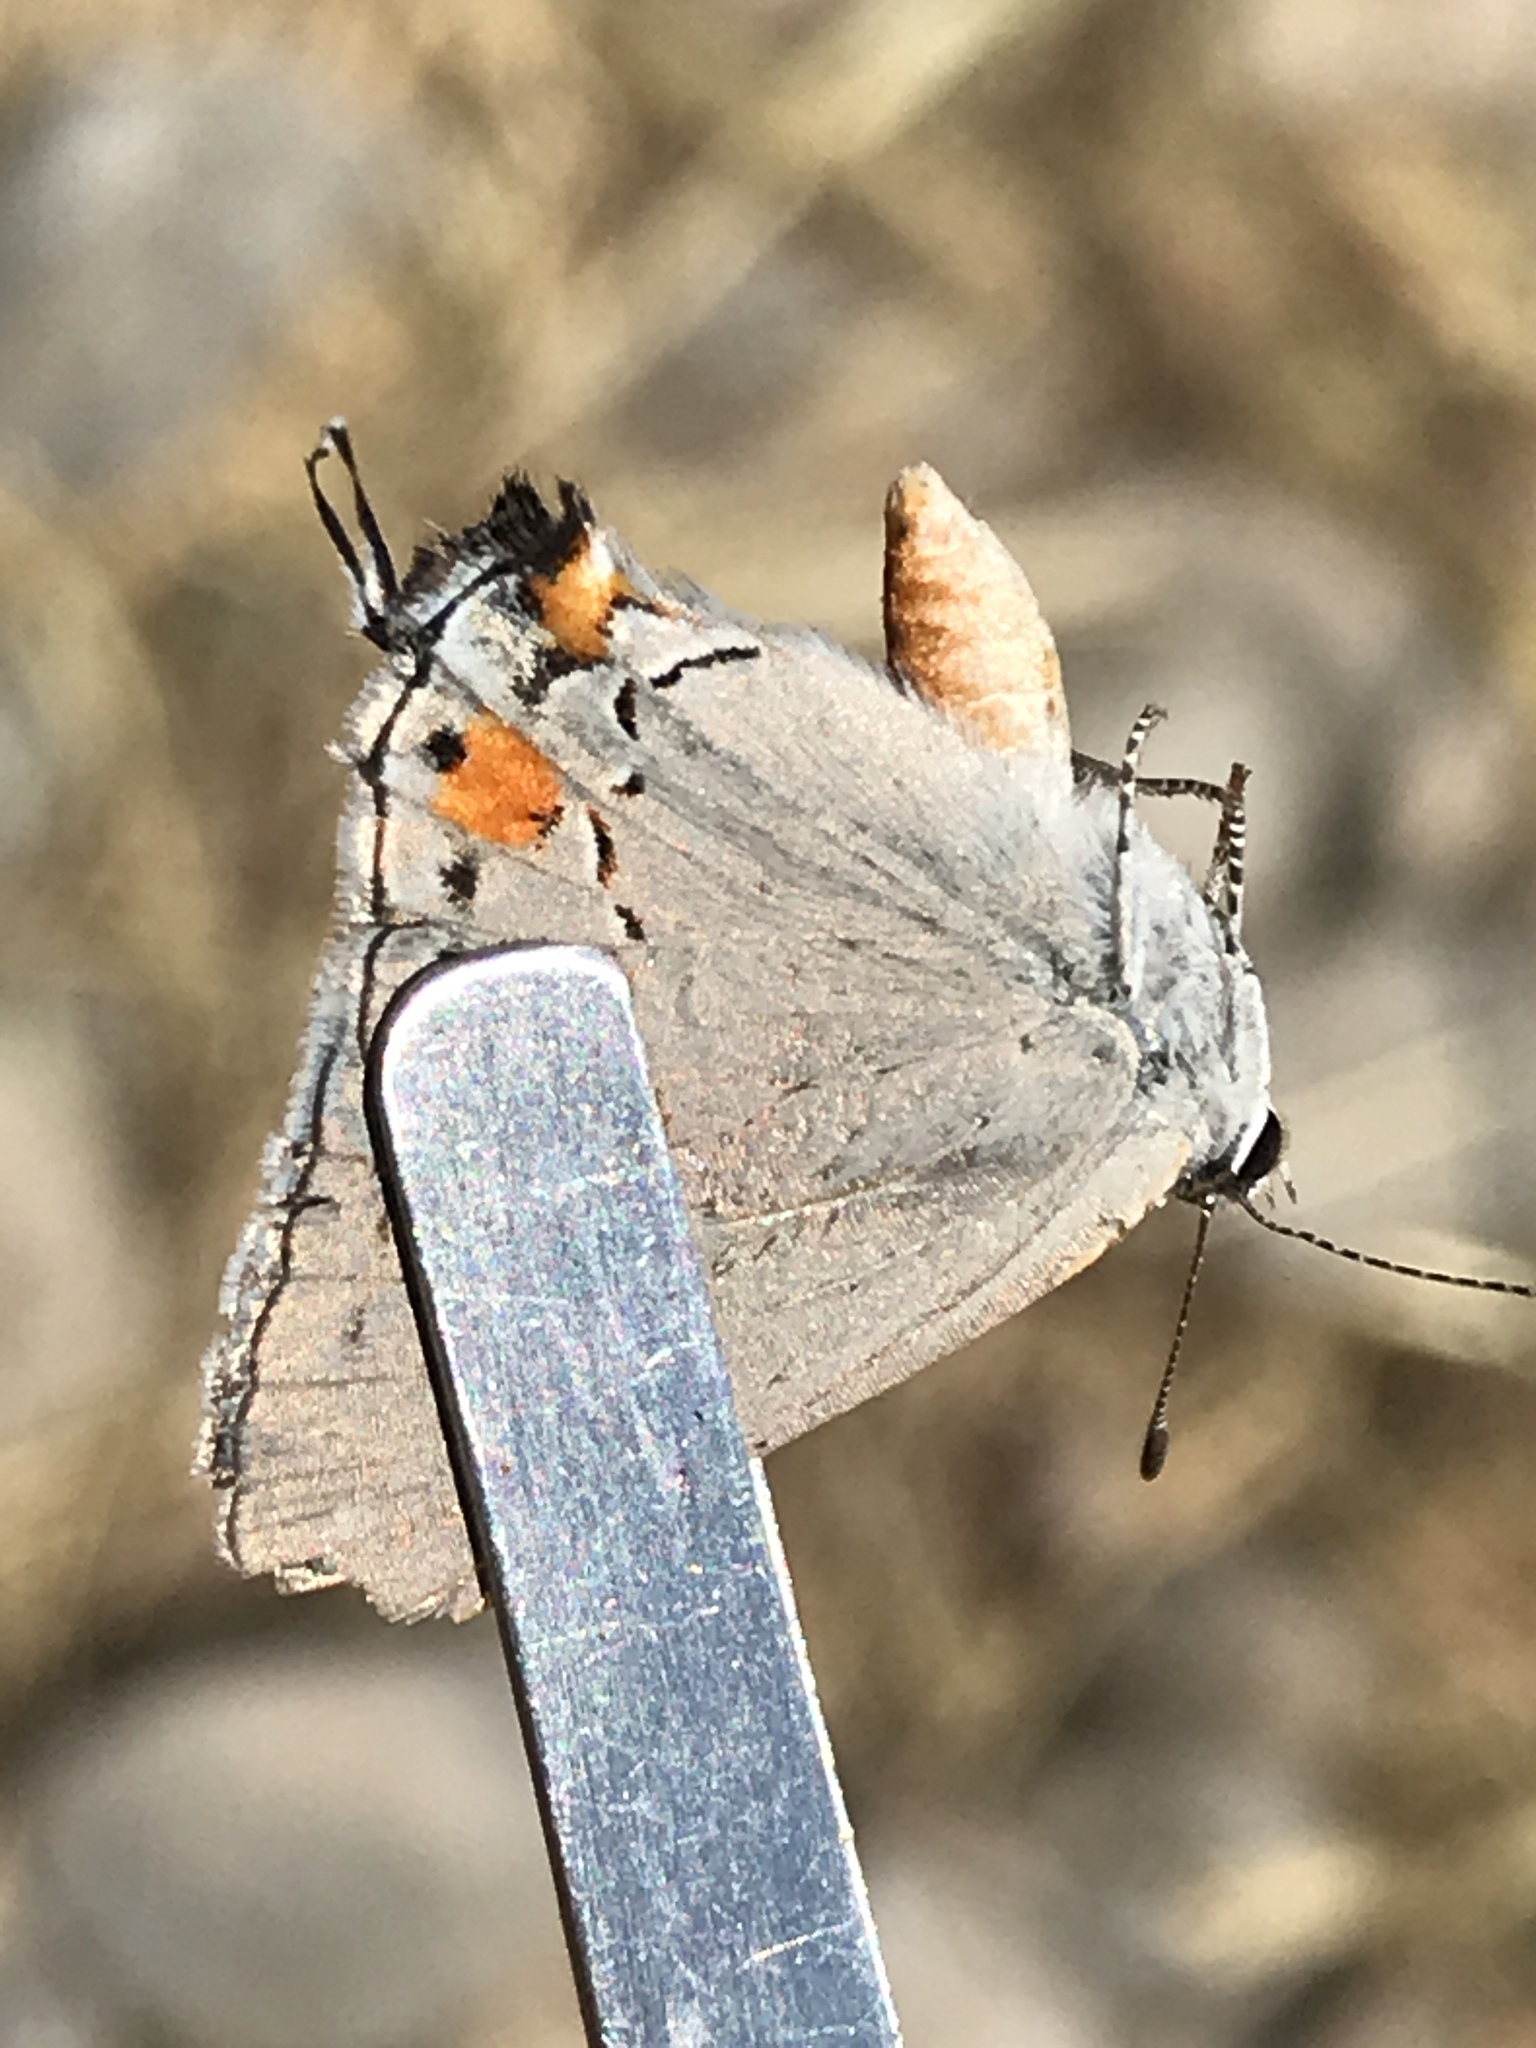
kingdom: Animalia
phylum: Arthropoda
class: Insecta
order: Lepidoptera
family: Lycaenidae
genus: Strymon
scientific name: Strymon melinus
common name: Gray hairstreak
